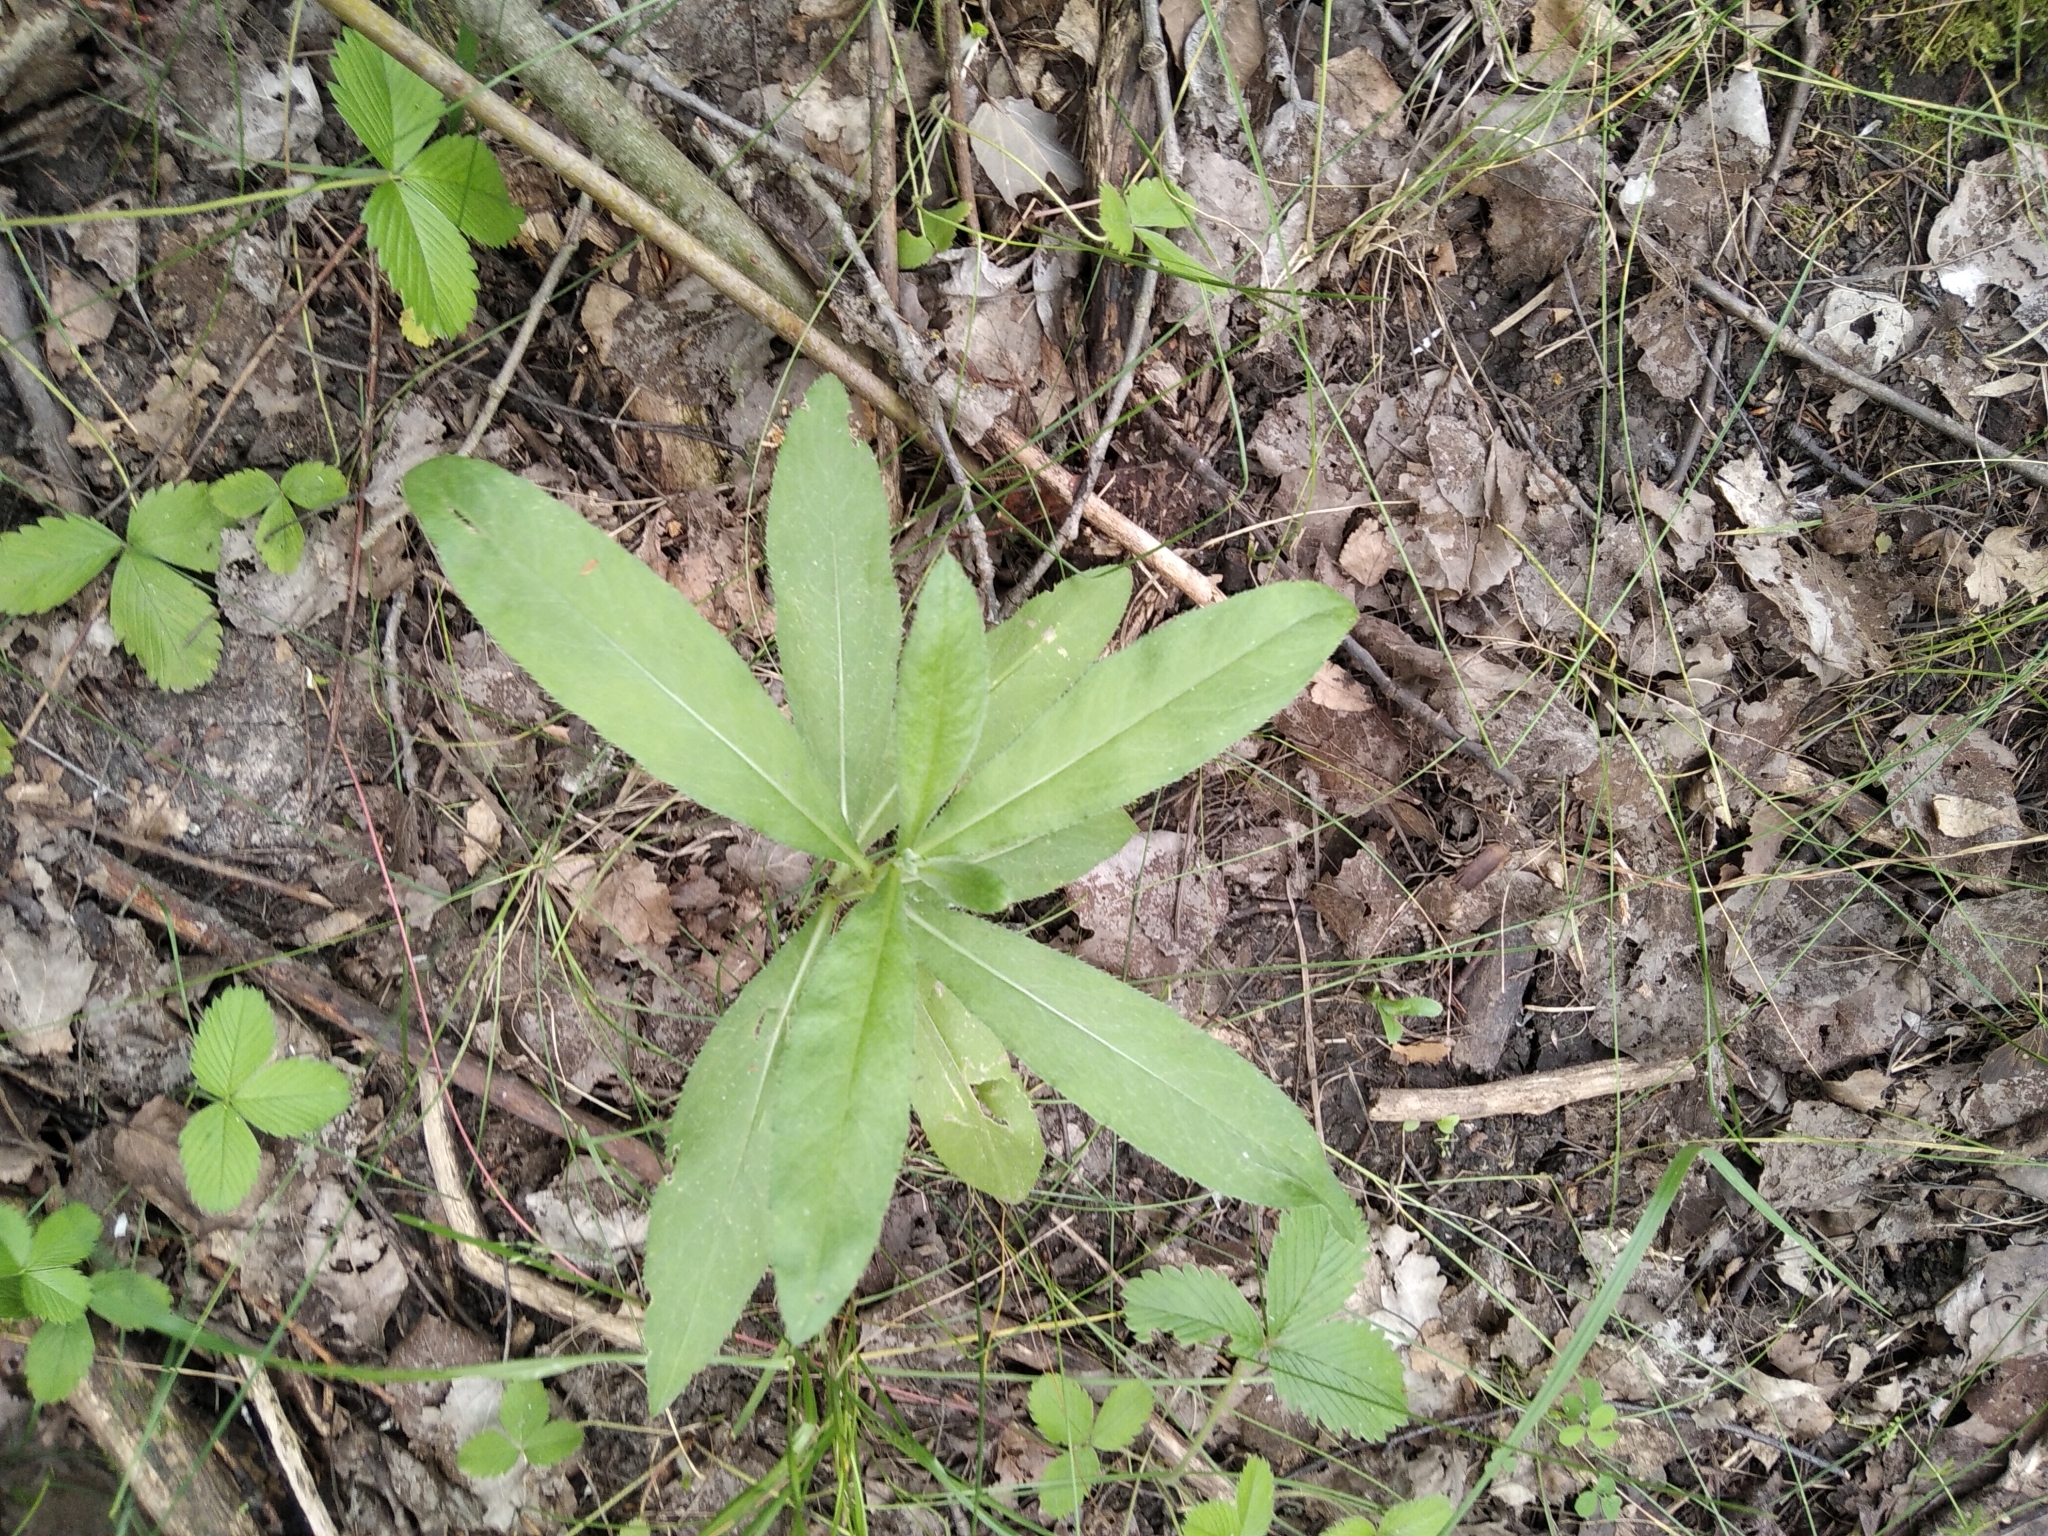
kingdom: Plantae
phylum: Tracheophyta
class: Magnoliopsida
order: Asterales
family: Asteraceae
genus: Cirsium
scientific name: Cirsium arvense
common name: Creeping thistle
